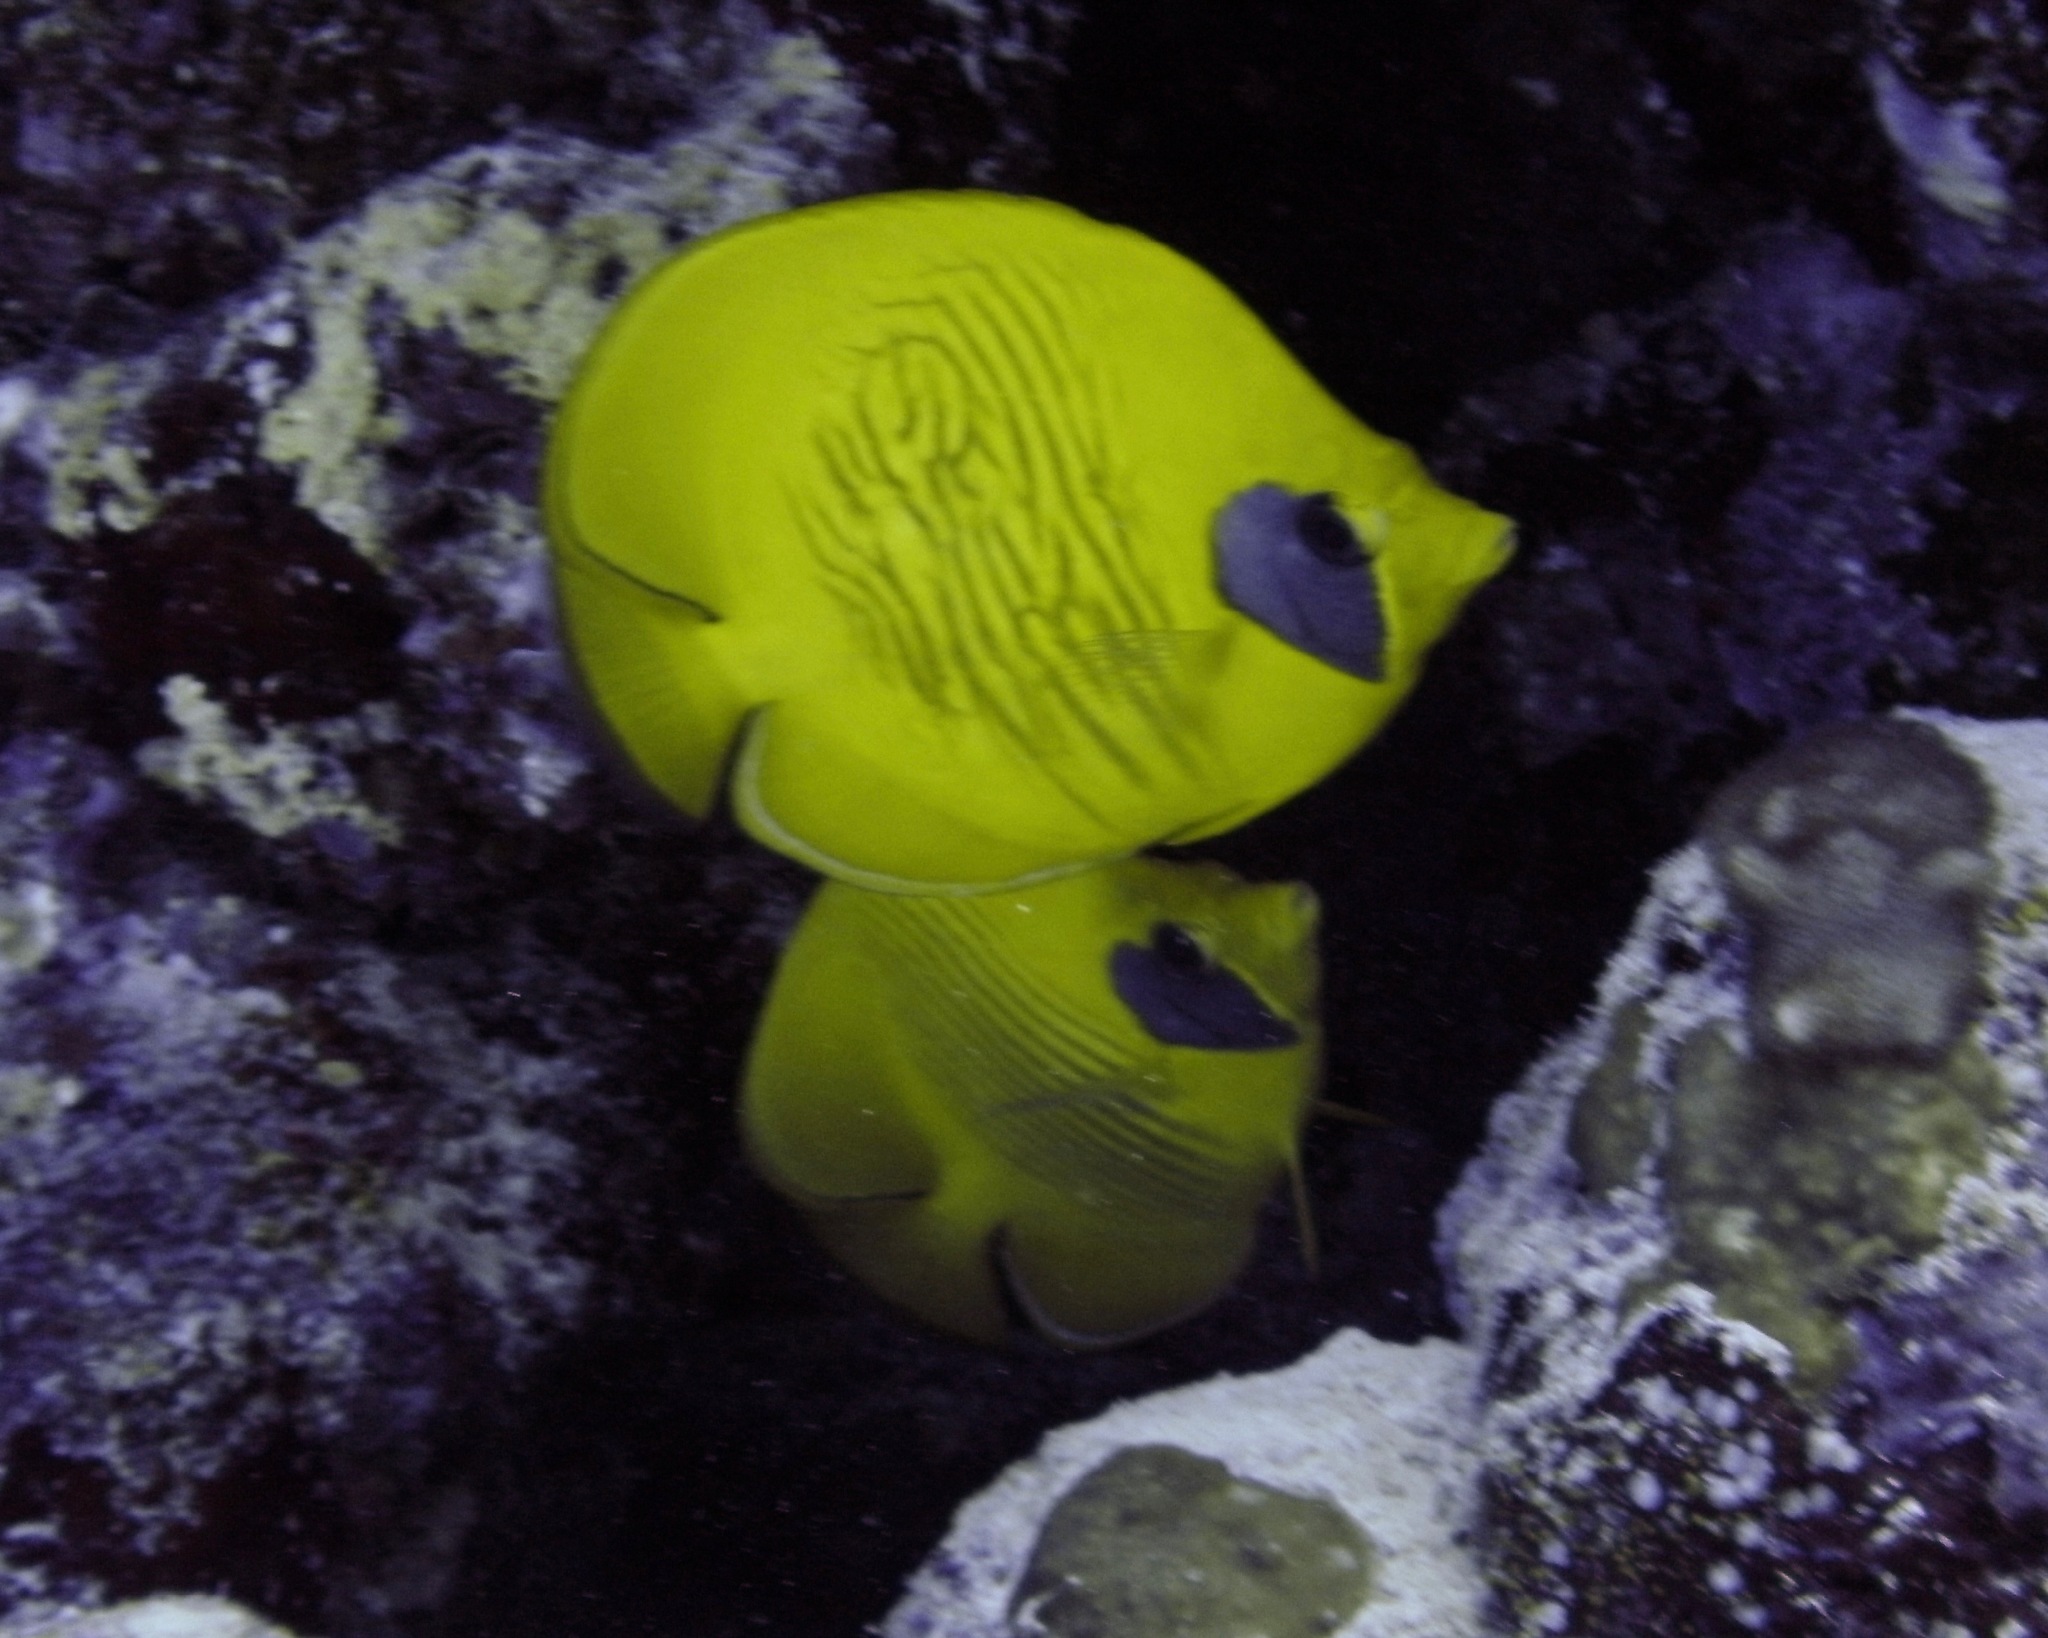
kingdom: Animalia
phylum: Chordata
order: Perciformes
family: Chaetodontidae
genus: Chaetodon
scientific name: Chaetodon semilarvatus
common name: Golden butterflyfish
